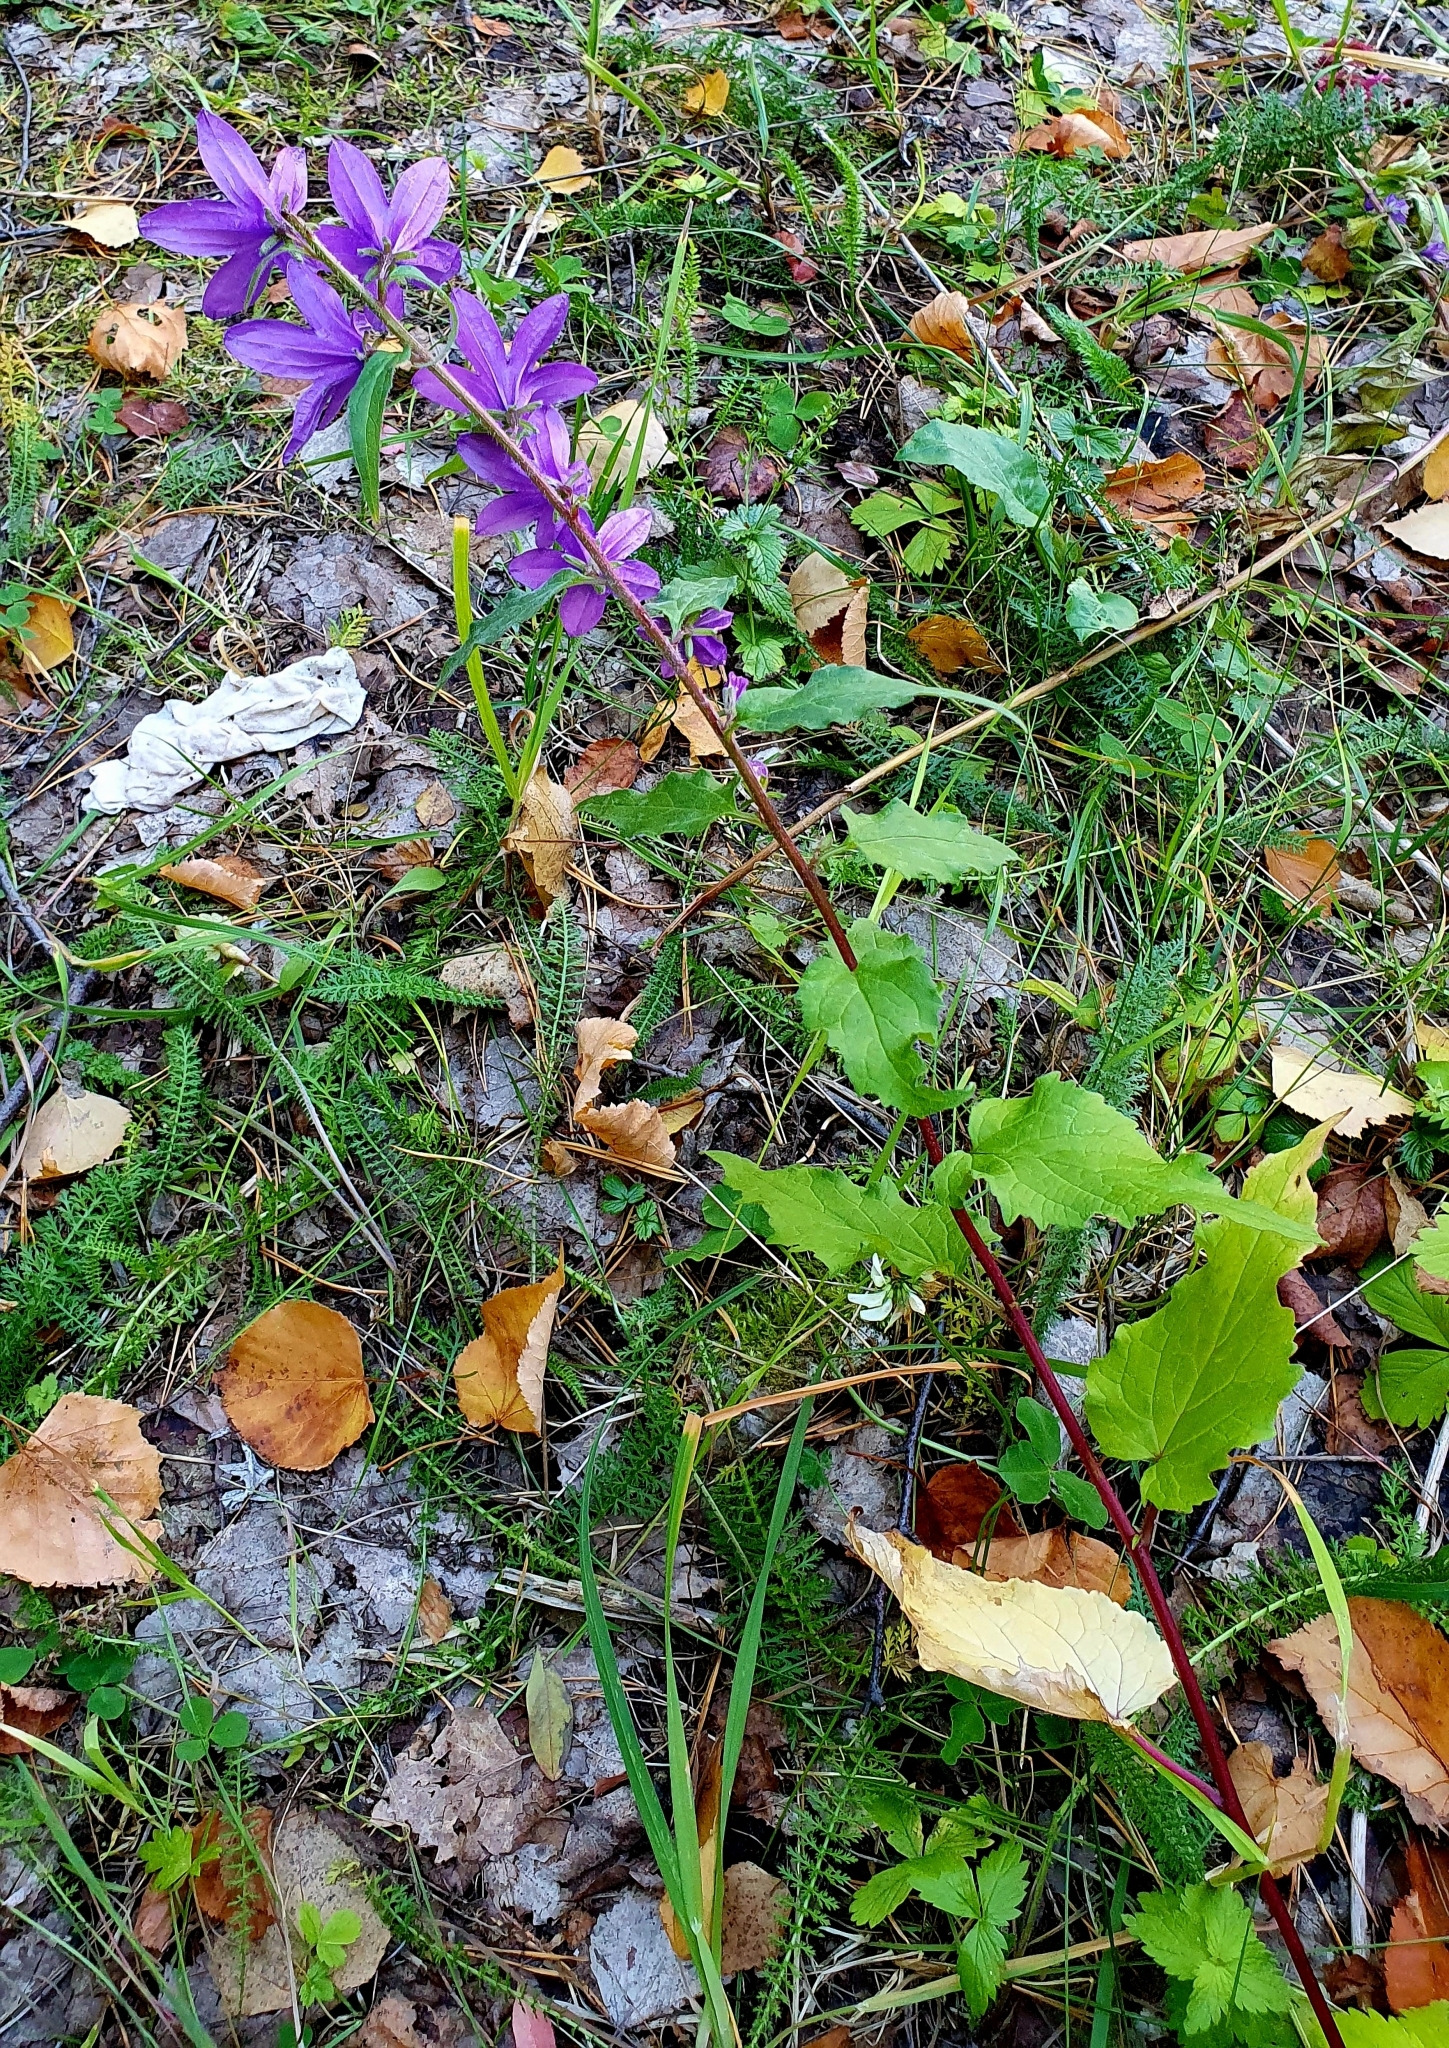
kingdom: Plantae
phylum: Tracheophyta
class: Magnoliopsida
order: Asterales
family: Campanulaceae
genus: Campanula
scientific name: Campanula rapunculoides
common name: Creeping bellflower
